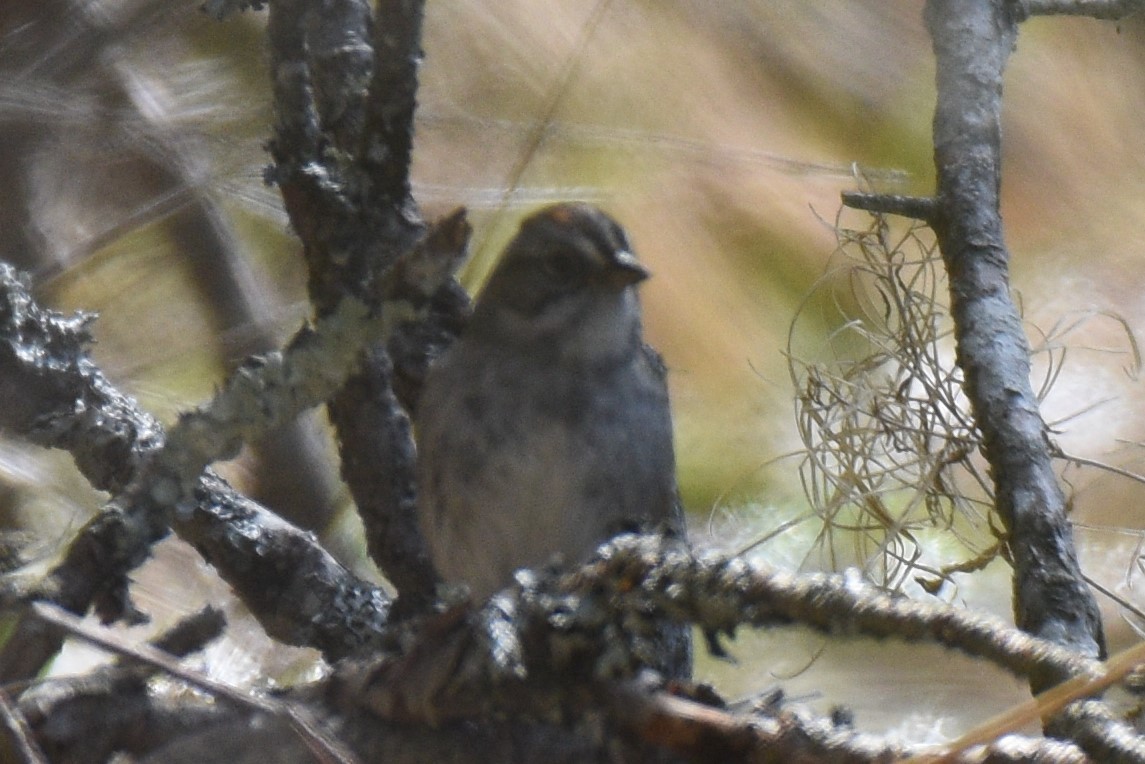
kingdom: Animalia
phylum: Chordata
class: Aves
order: Passeriformes
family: Passerellidae
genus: Melospiza
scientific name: Melospiza georgiana
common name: Swamp sparrow
